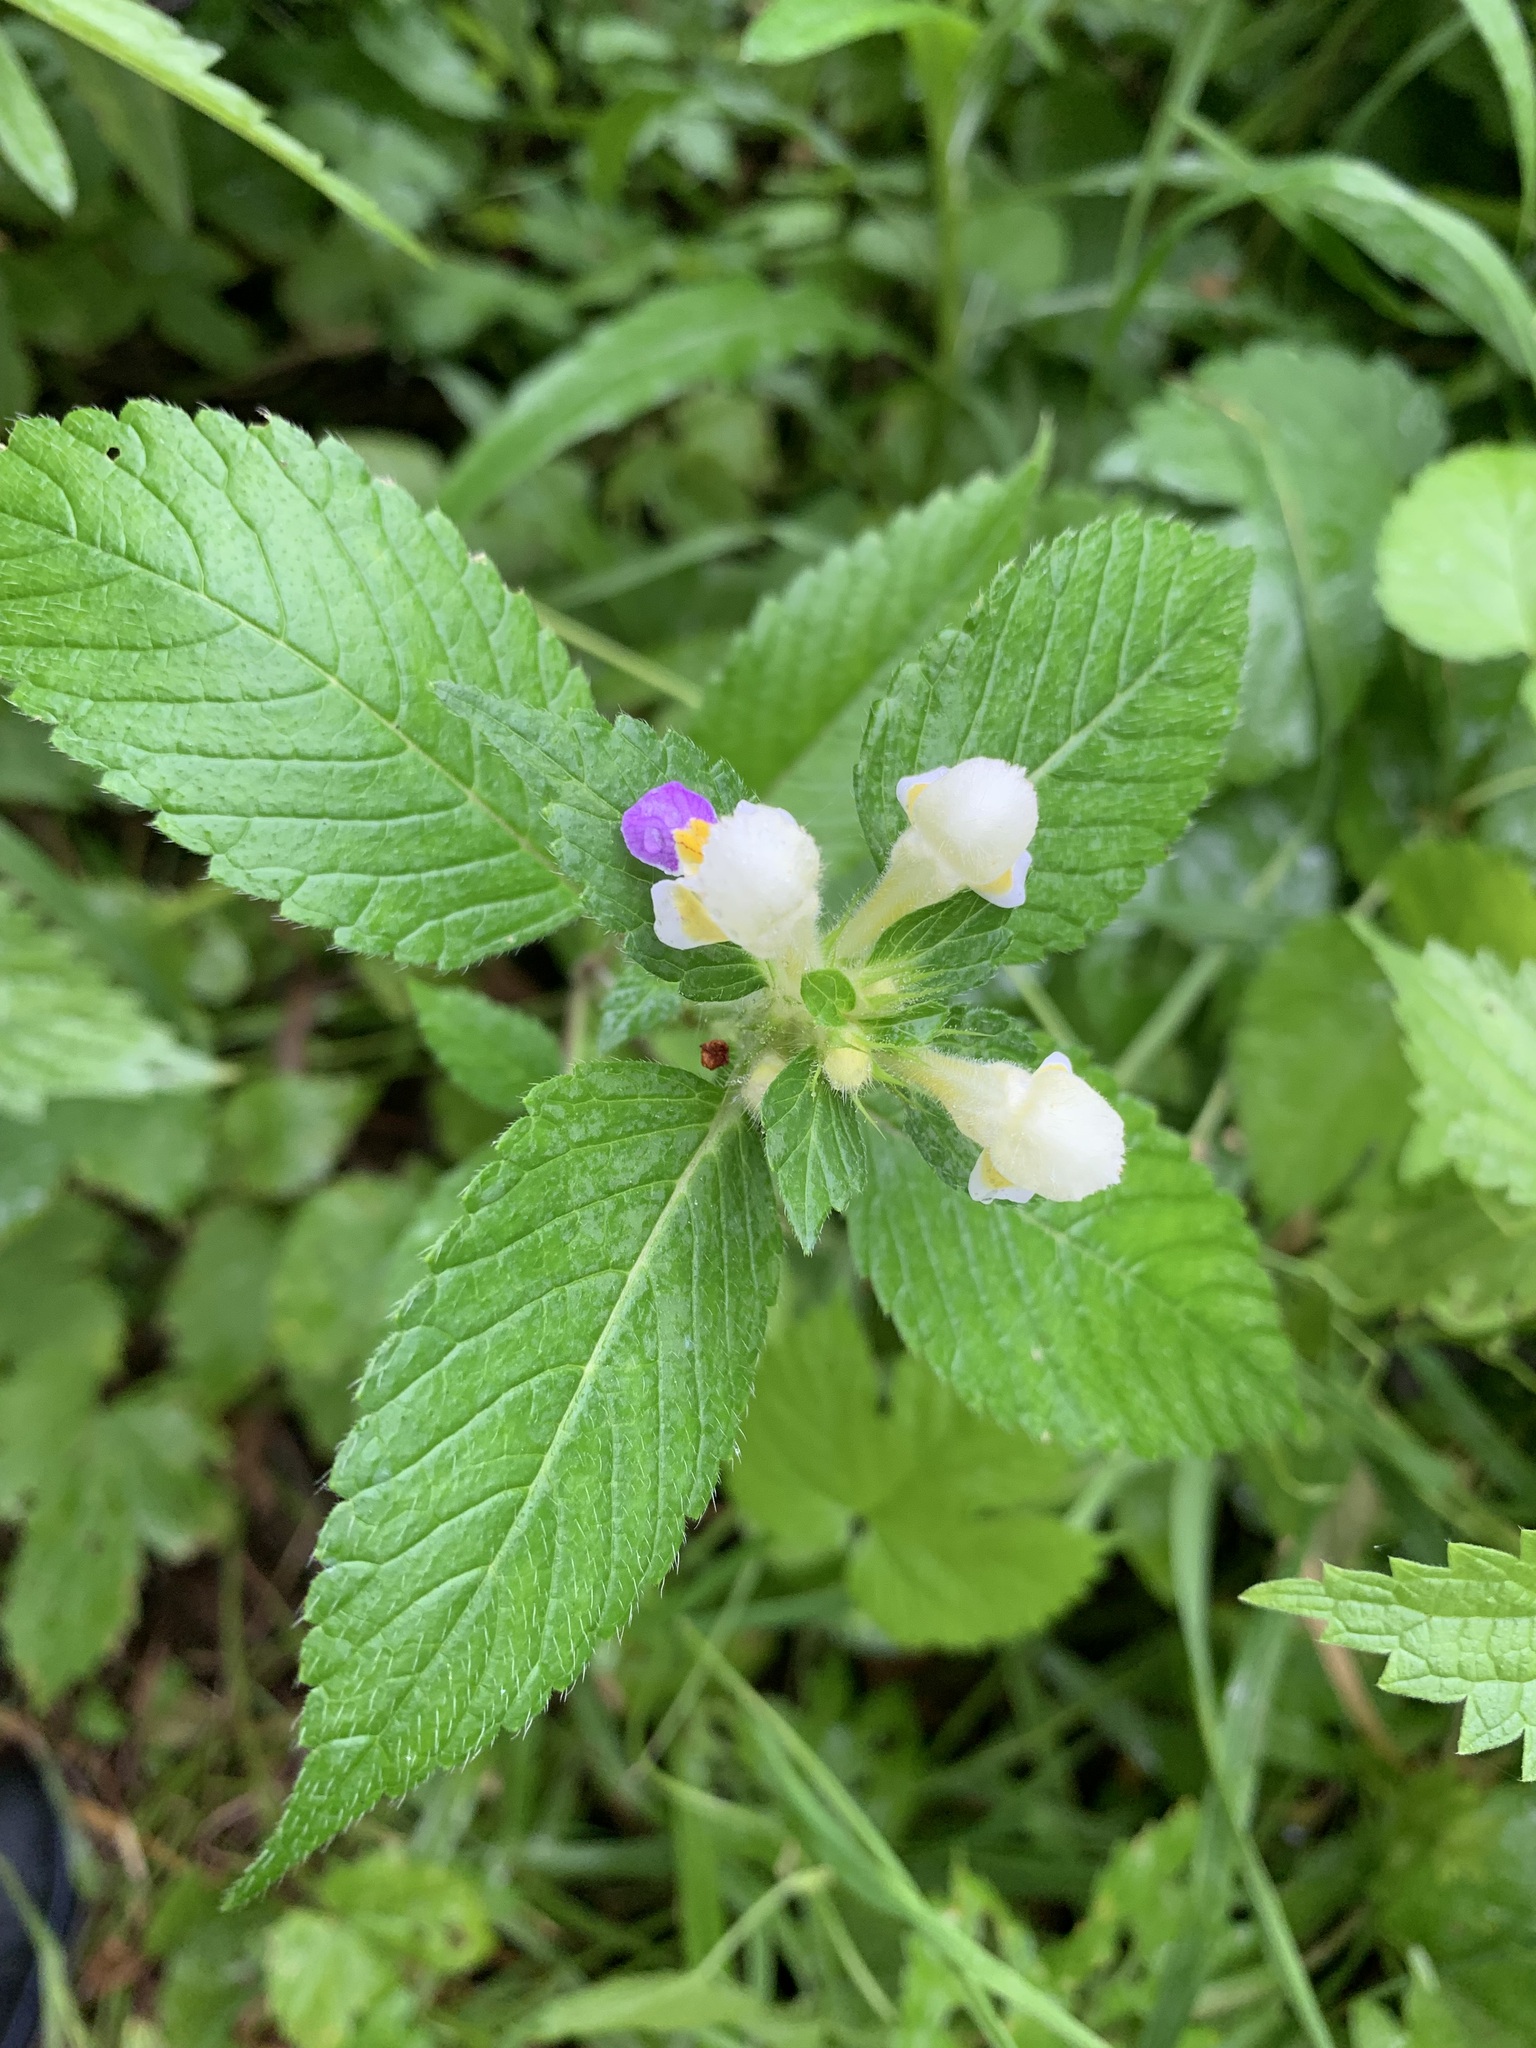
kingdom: Plantae
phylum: Tracheophyta
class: Magnoliopsida
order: Lamiales
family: Lamiaceae
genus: Galeopsis
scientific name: Galeopsis speciosa
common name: Large-flowered hemp-nettle
